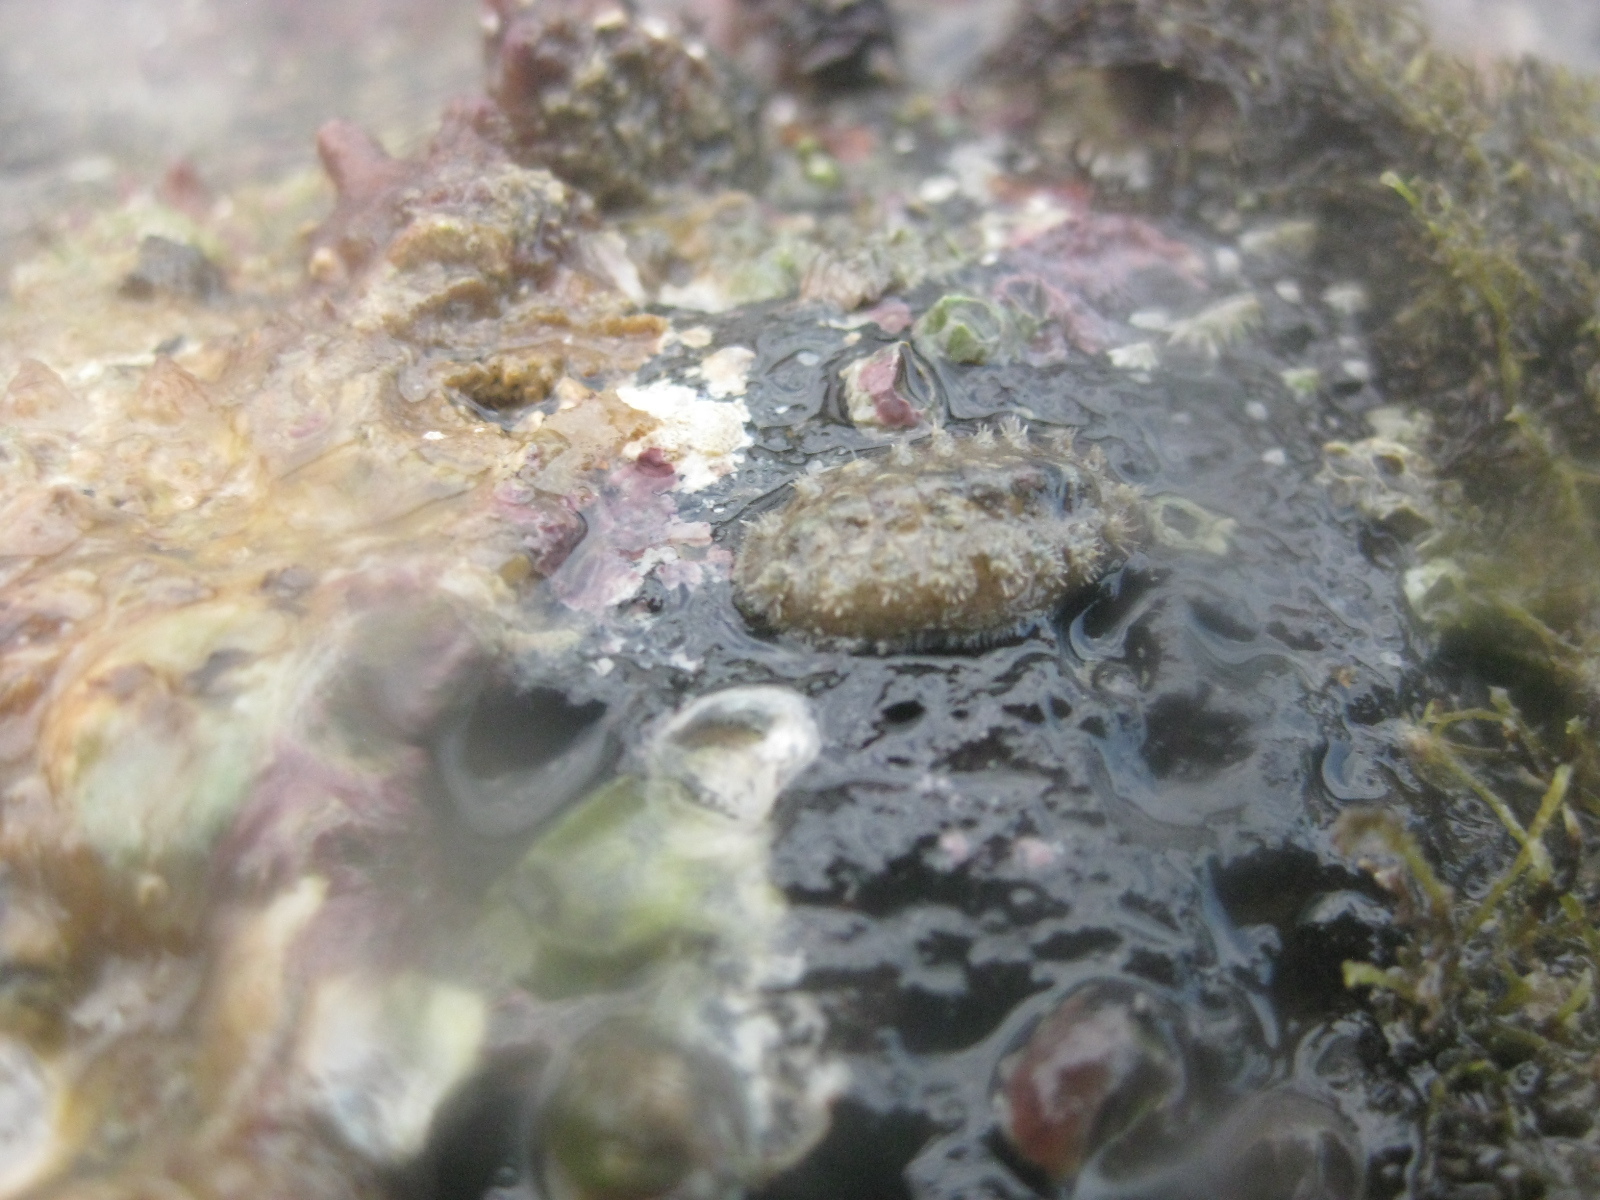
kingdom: Animalia
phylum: Mollusca
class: Polyplacophora
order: Chitonida
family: Acanthochitonidae
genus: Acanthochitona
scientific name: Acanthochitona zelandica
